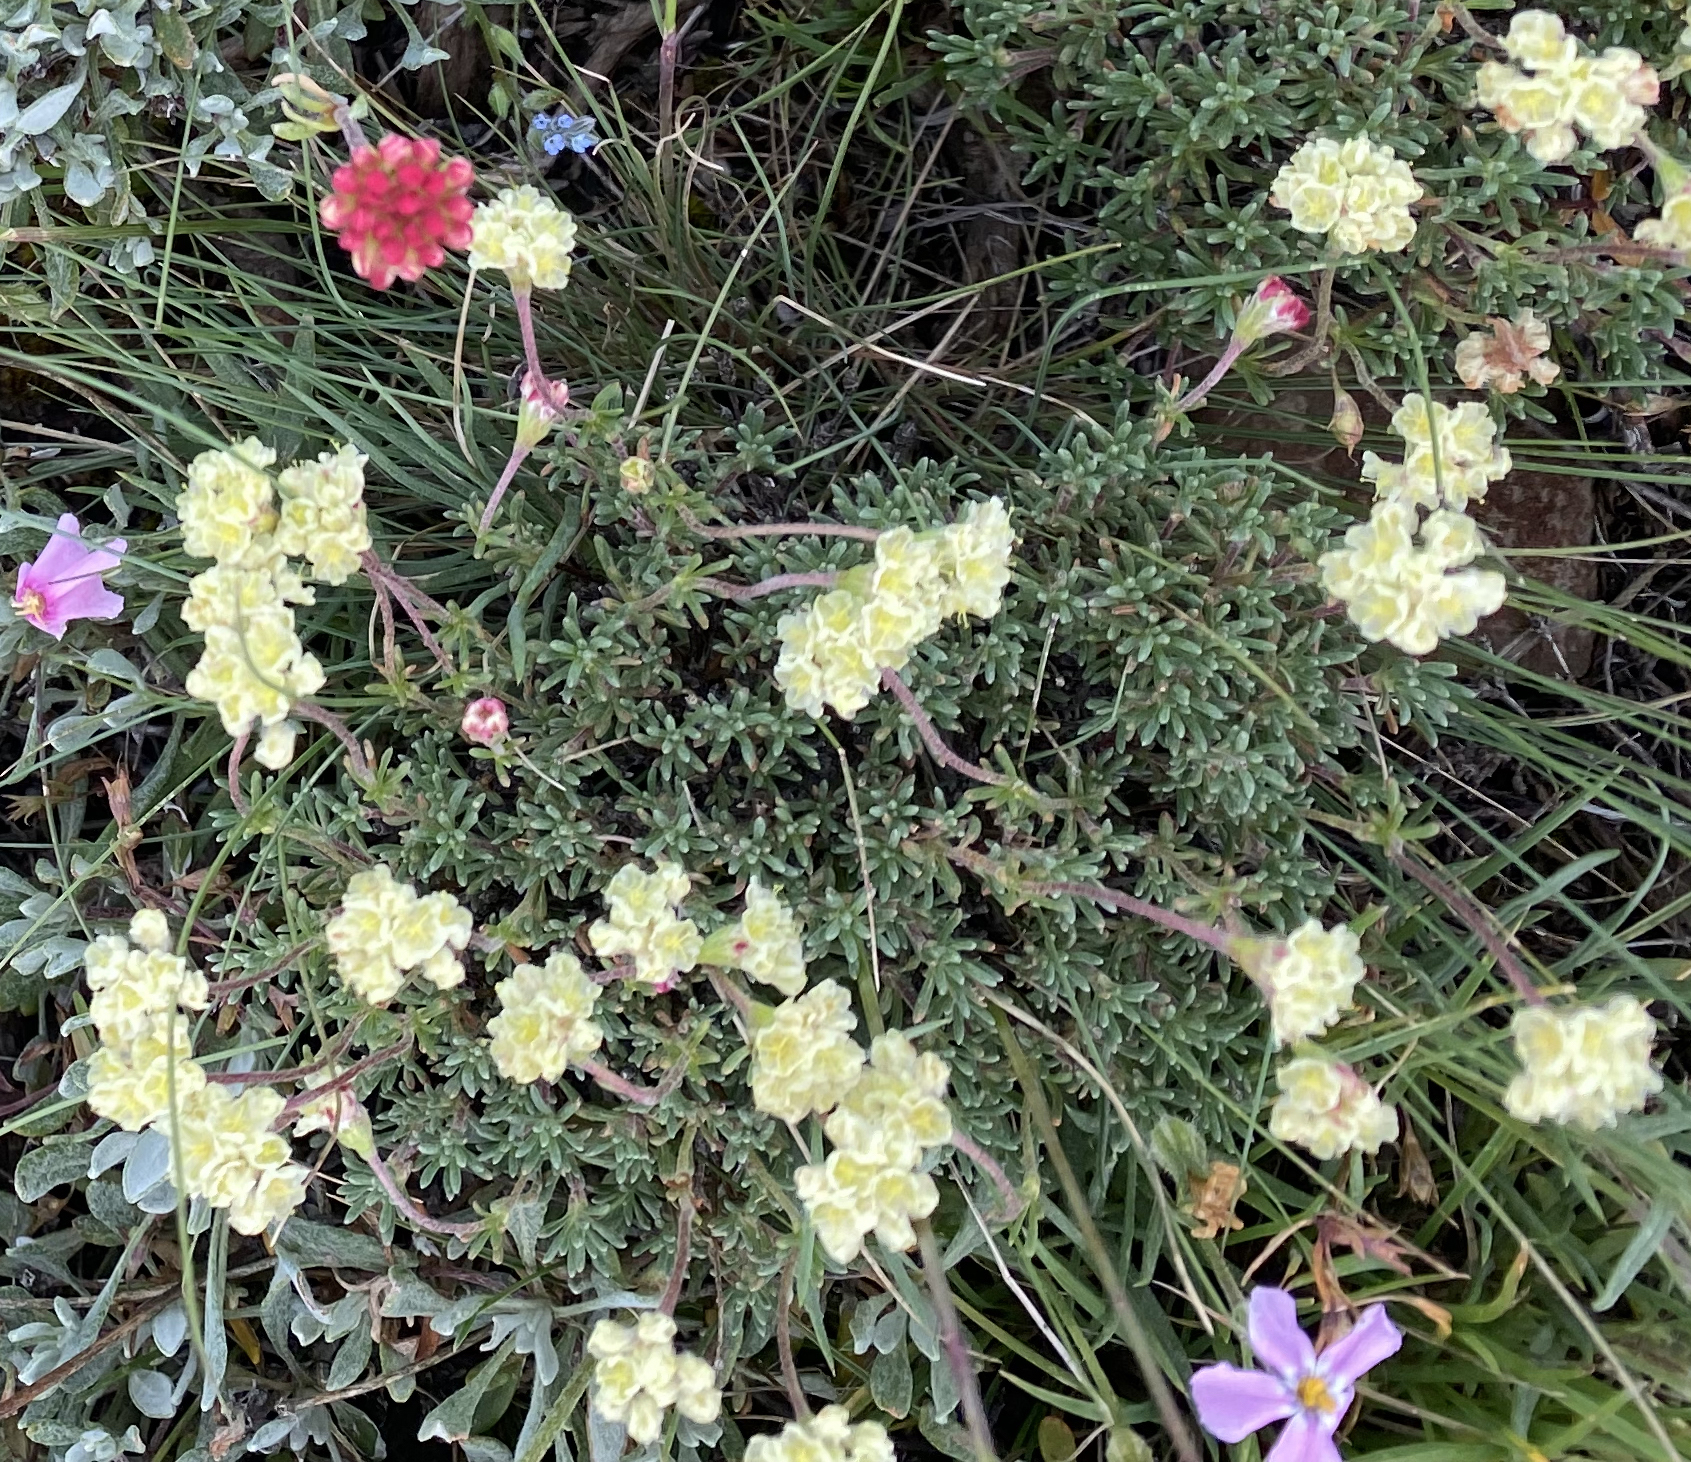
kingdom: Plantae
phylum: Tracheophyta
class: Magnoliopsida
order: Caryophyllales
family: Polygonaceae
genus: Eriogonum
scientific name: Eriogonum thymoides
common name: Thyme-leaf wild buckwheat
